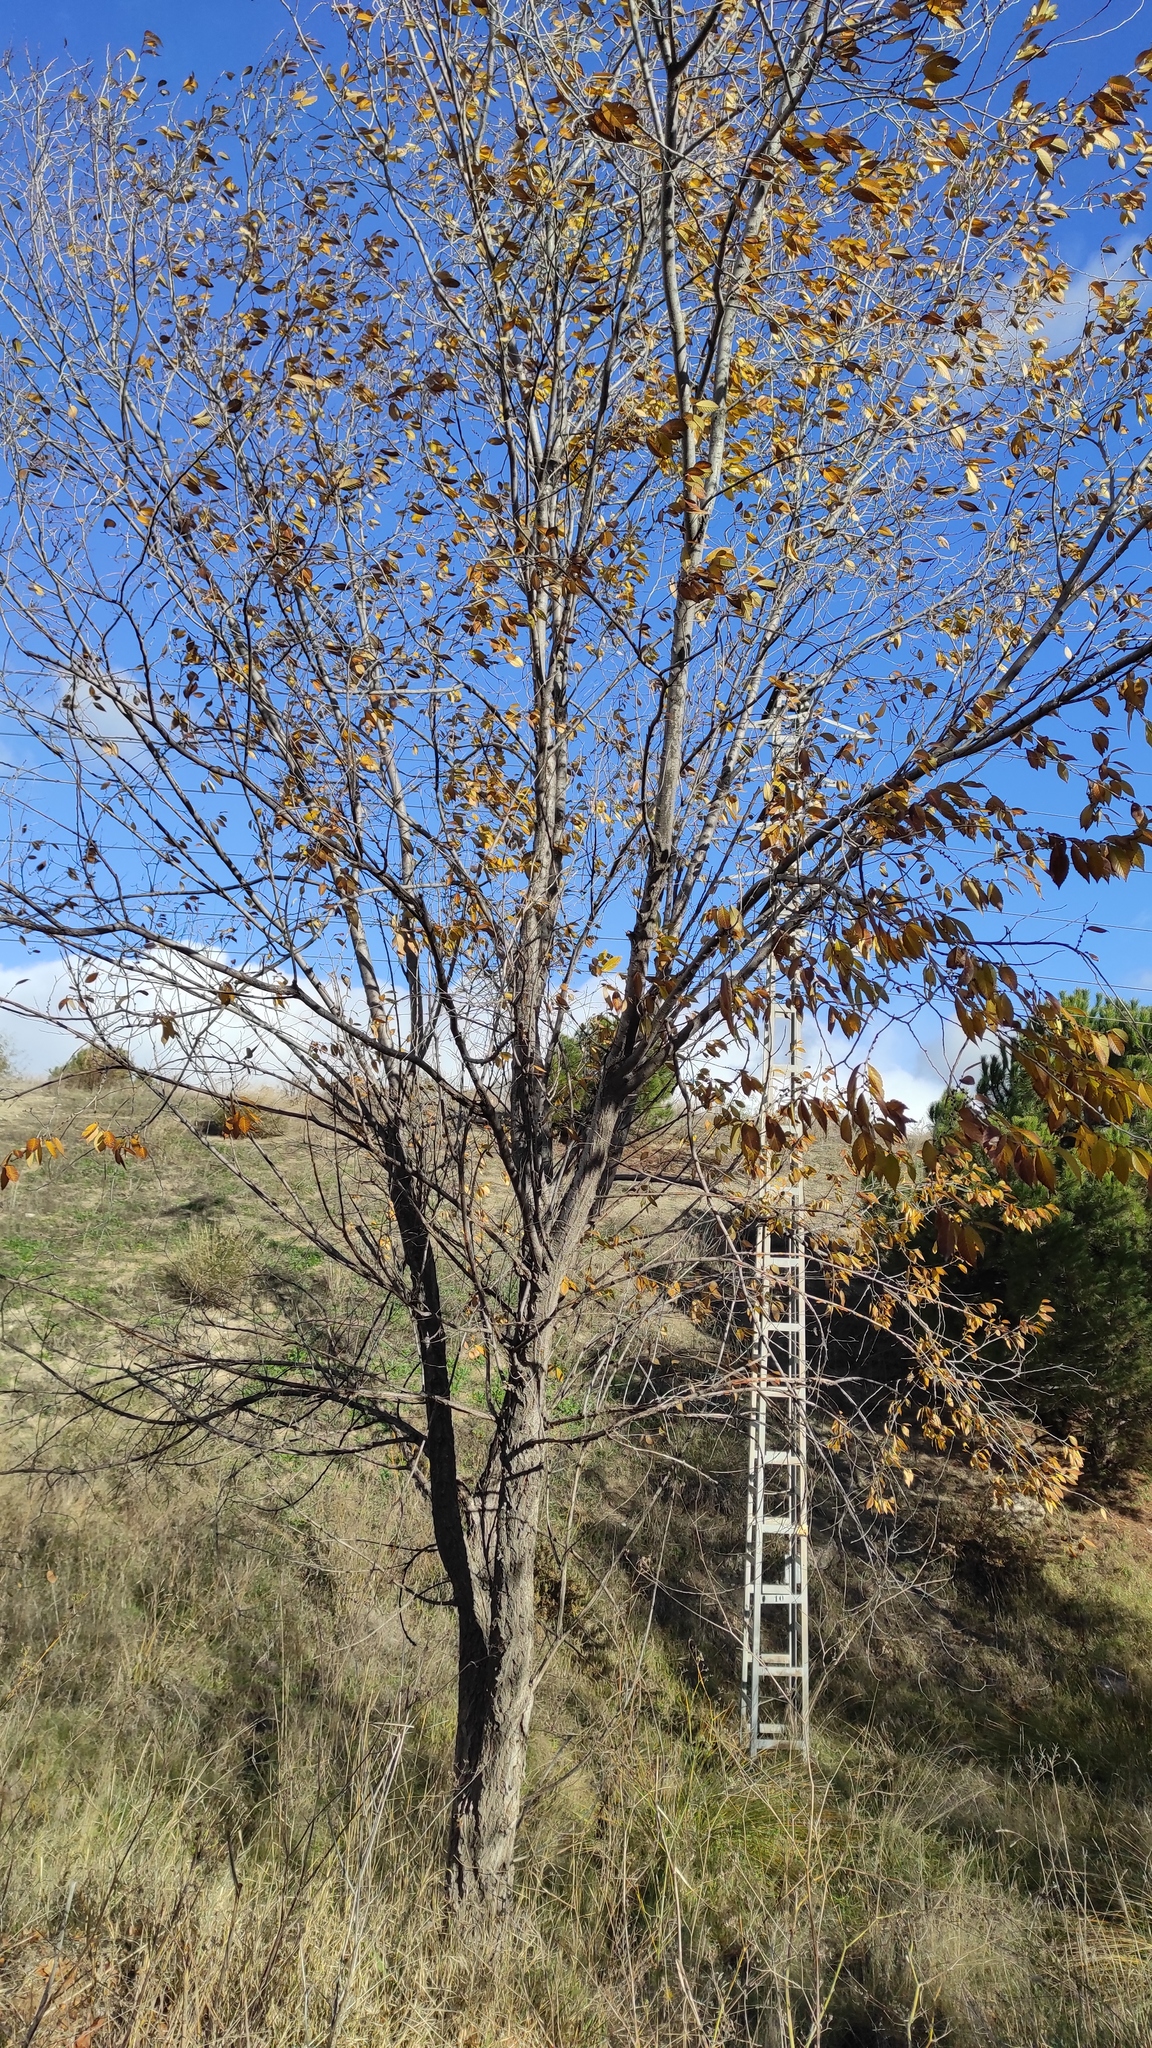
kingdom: Plantae
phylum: Tracheophyta
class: Magnoliopsida
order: Rosales
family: Ulmaceae
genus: Ulmus
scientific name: Ulmus pumila
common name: Siberian elm
